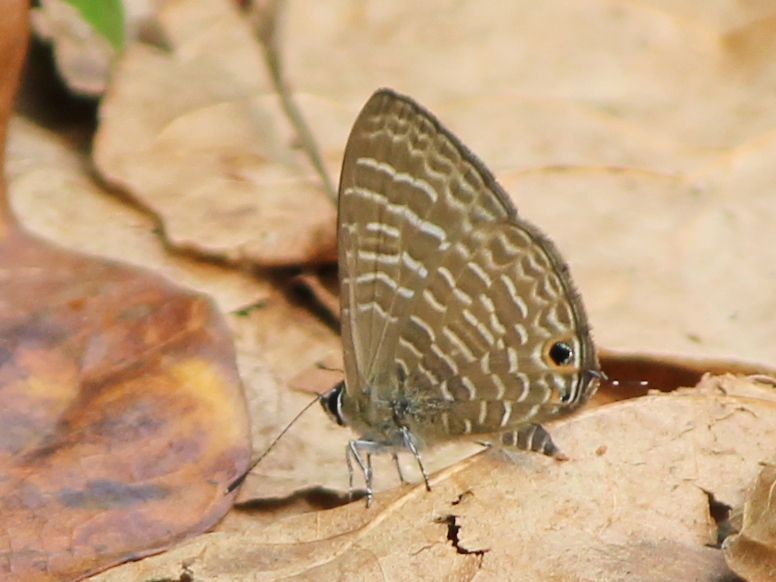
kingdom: Animalia
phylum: Arthropoda
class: Insecta
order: Lepidoptera
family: Lycaenidae
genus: Nacaduba
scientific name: Nacaduba kurava
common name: Transparent 6-line blue
